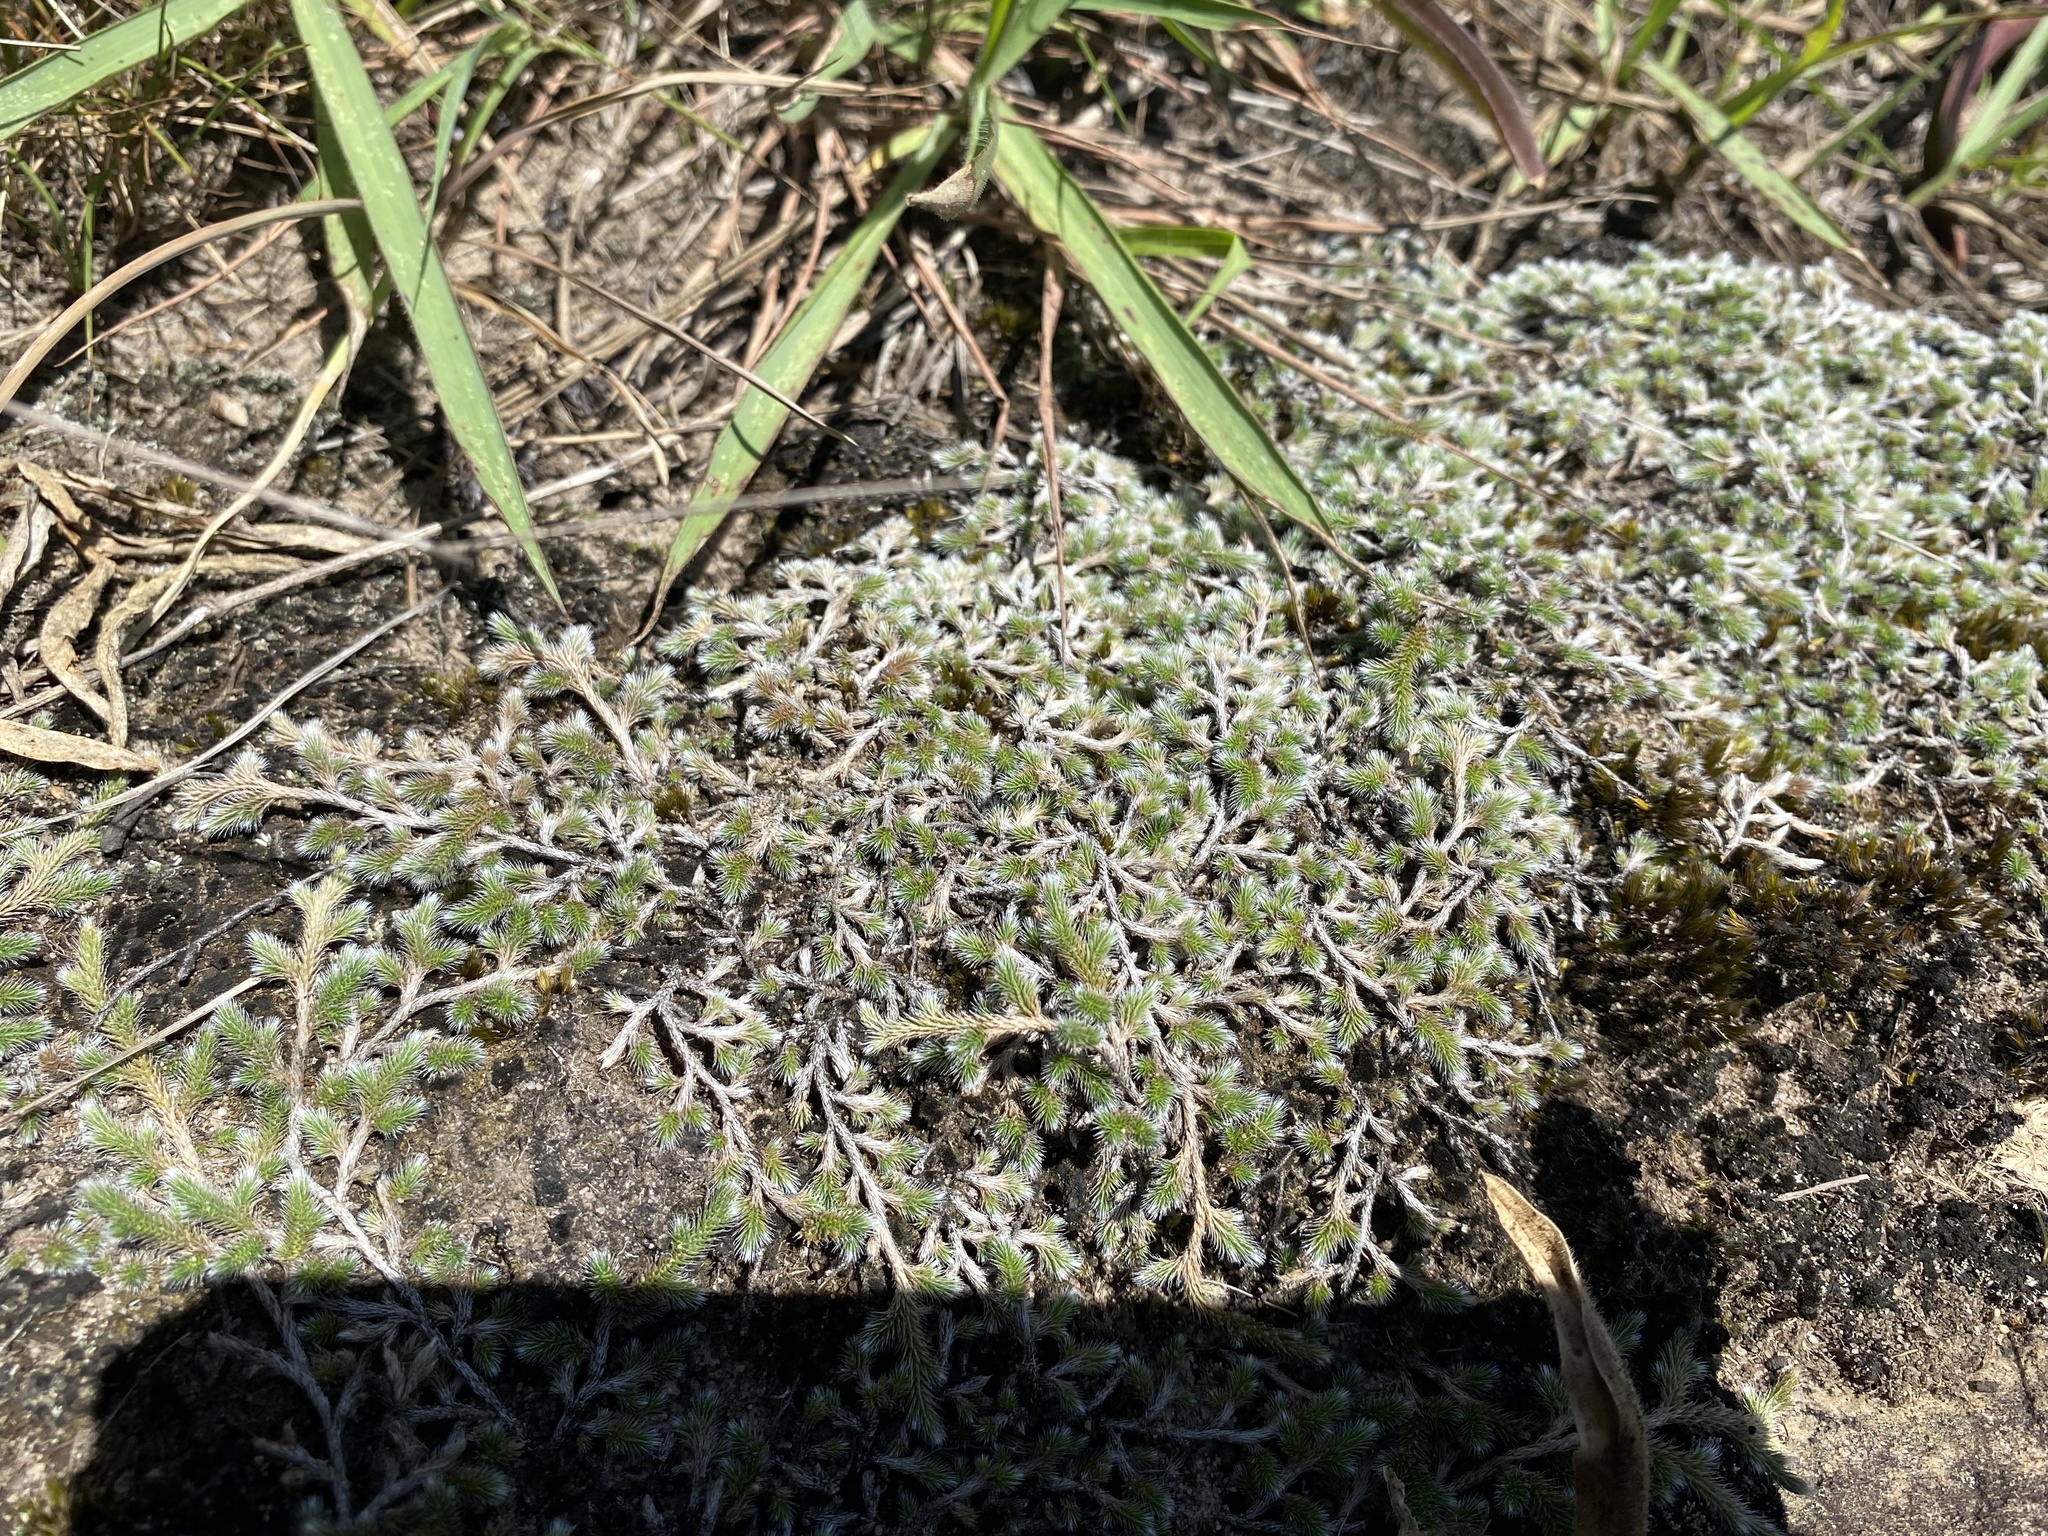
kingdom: Plantae
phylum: Tracheophyta
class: Lycopodiopsida
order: Selaginellales
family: Selaginellaceae
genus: Selaginella
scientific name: Selaginella dregei
